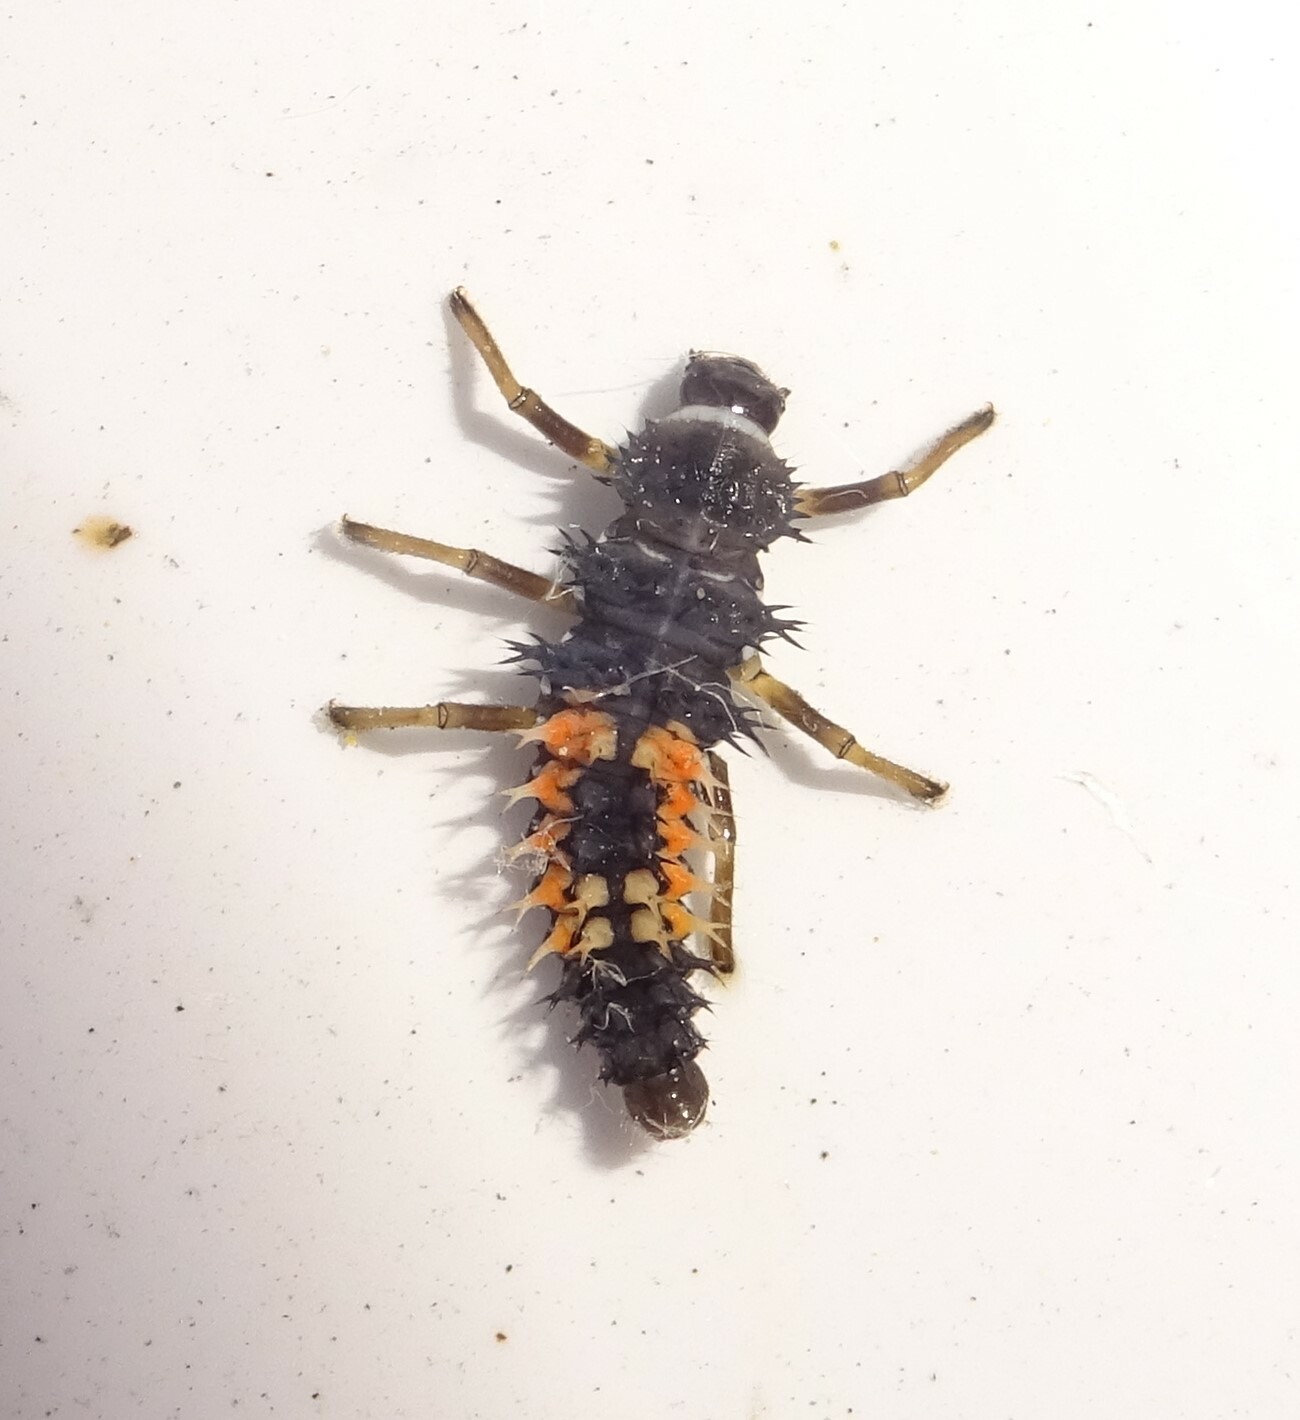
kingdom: Animalia
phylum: Arthropoda
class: Insecta
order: Coleoptera
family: Coccinellidae
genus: Harmonia
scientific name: Harmonia axyridis
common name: Harlequin ladybird
